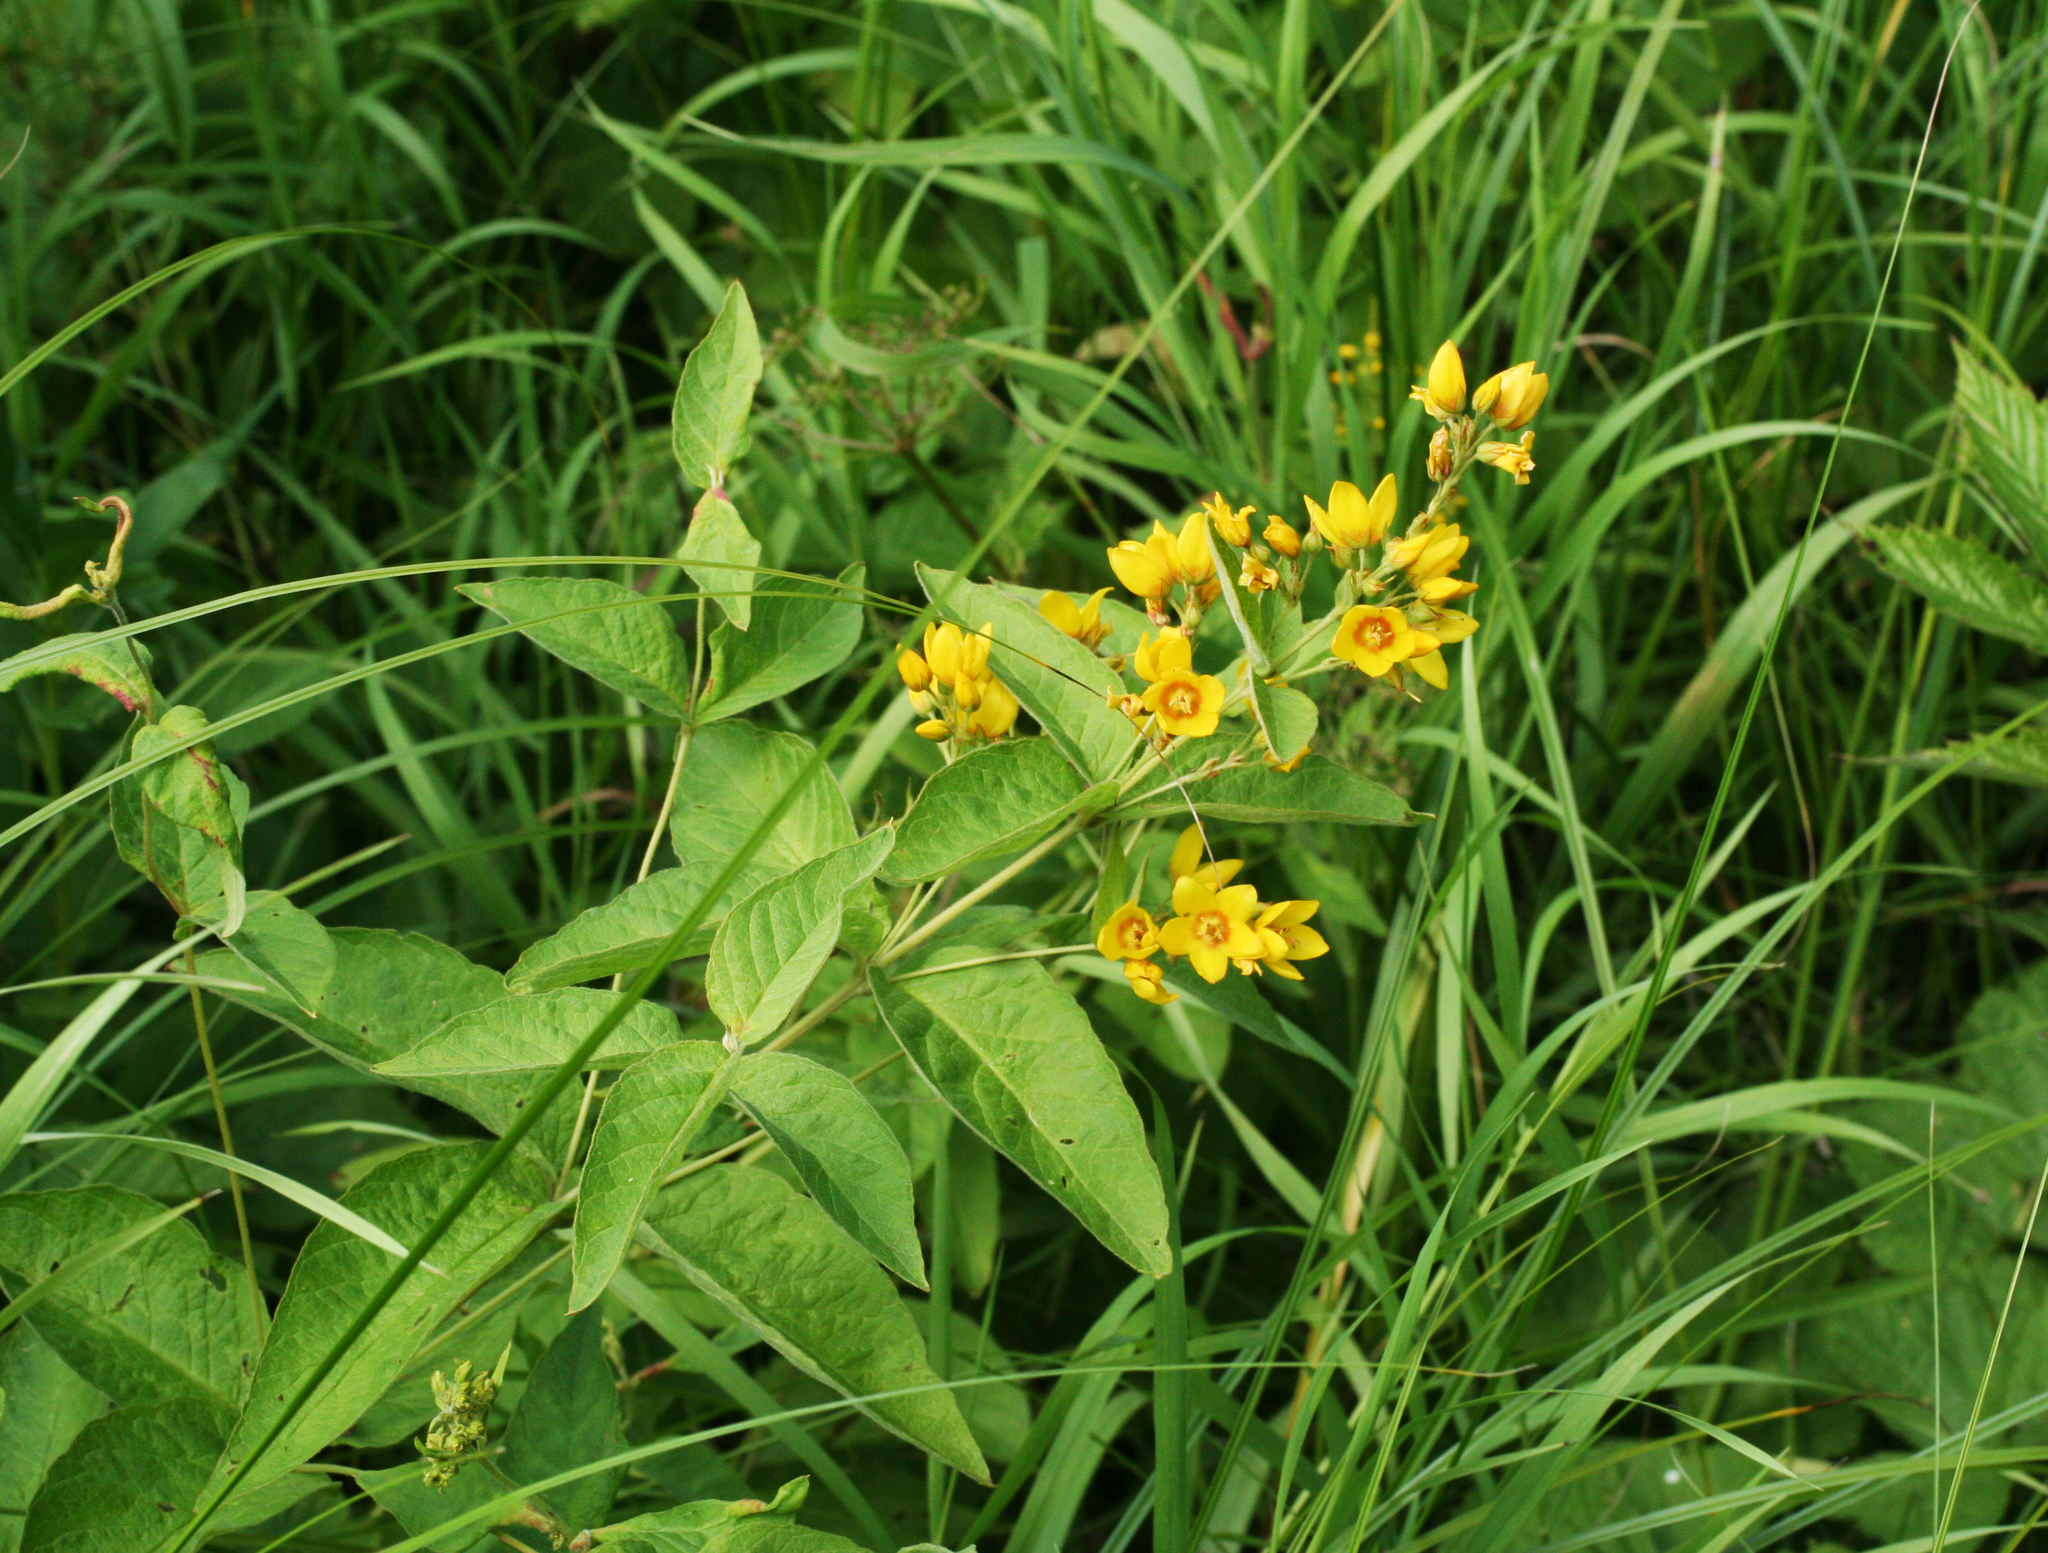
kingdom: Plantae
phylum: Tracheophyta
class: Magnoliopsida
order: Ericales
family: Primulaceae
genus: Lysimachia
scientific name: Lysimachia vulgaris
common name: Yellow loosestrife
